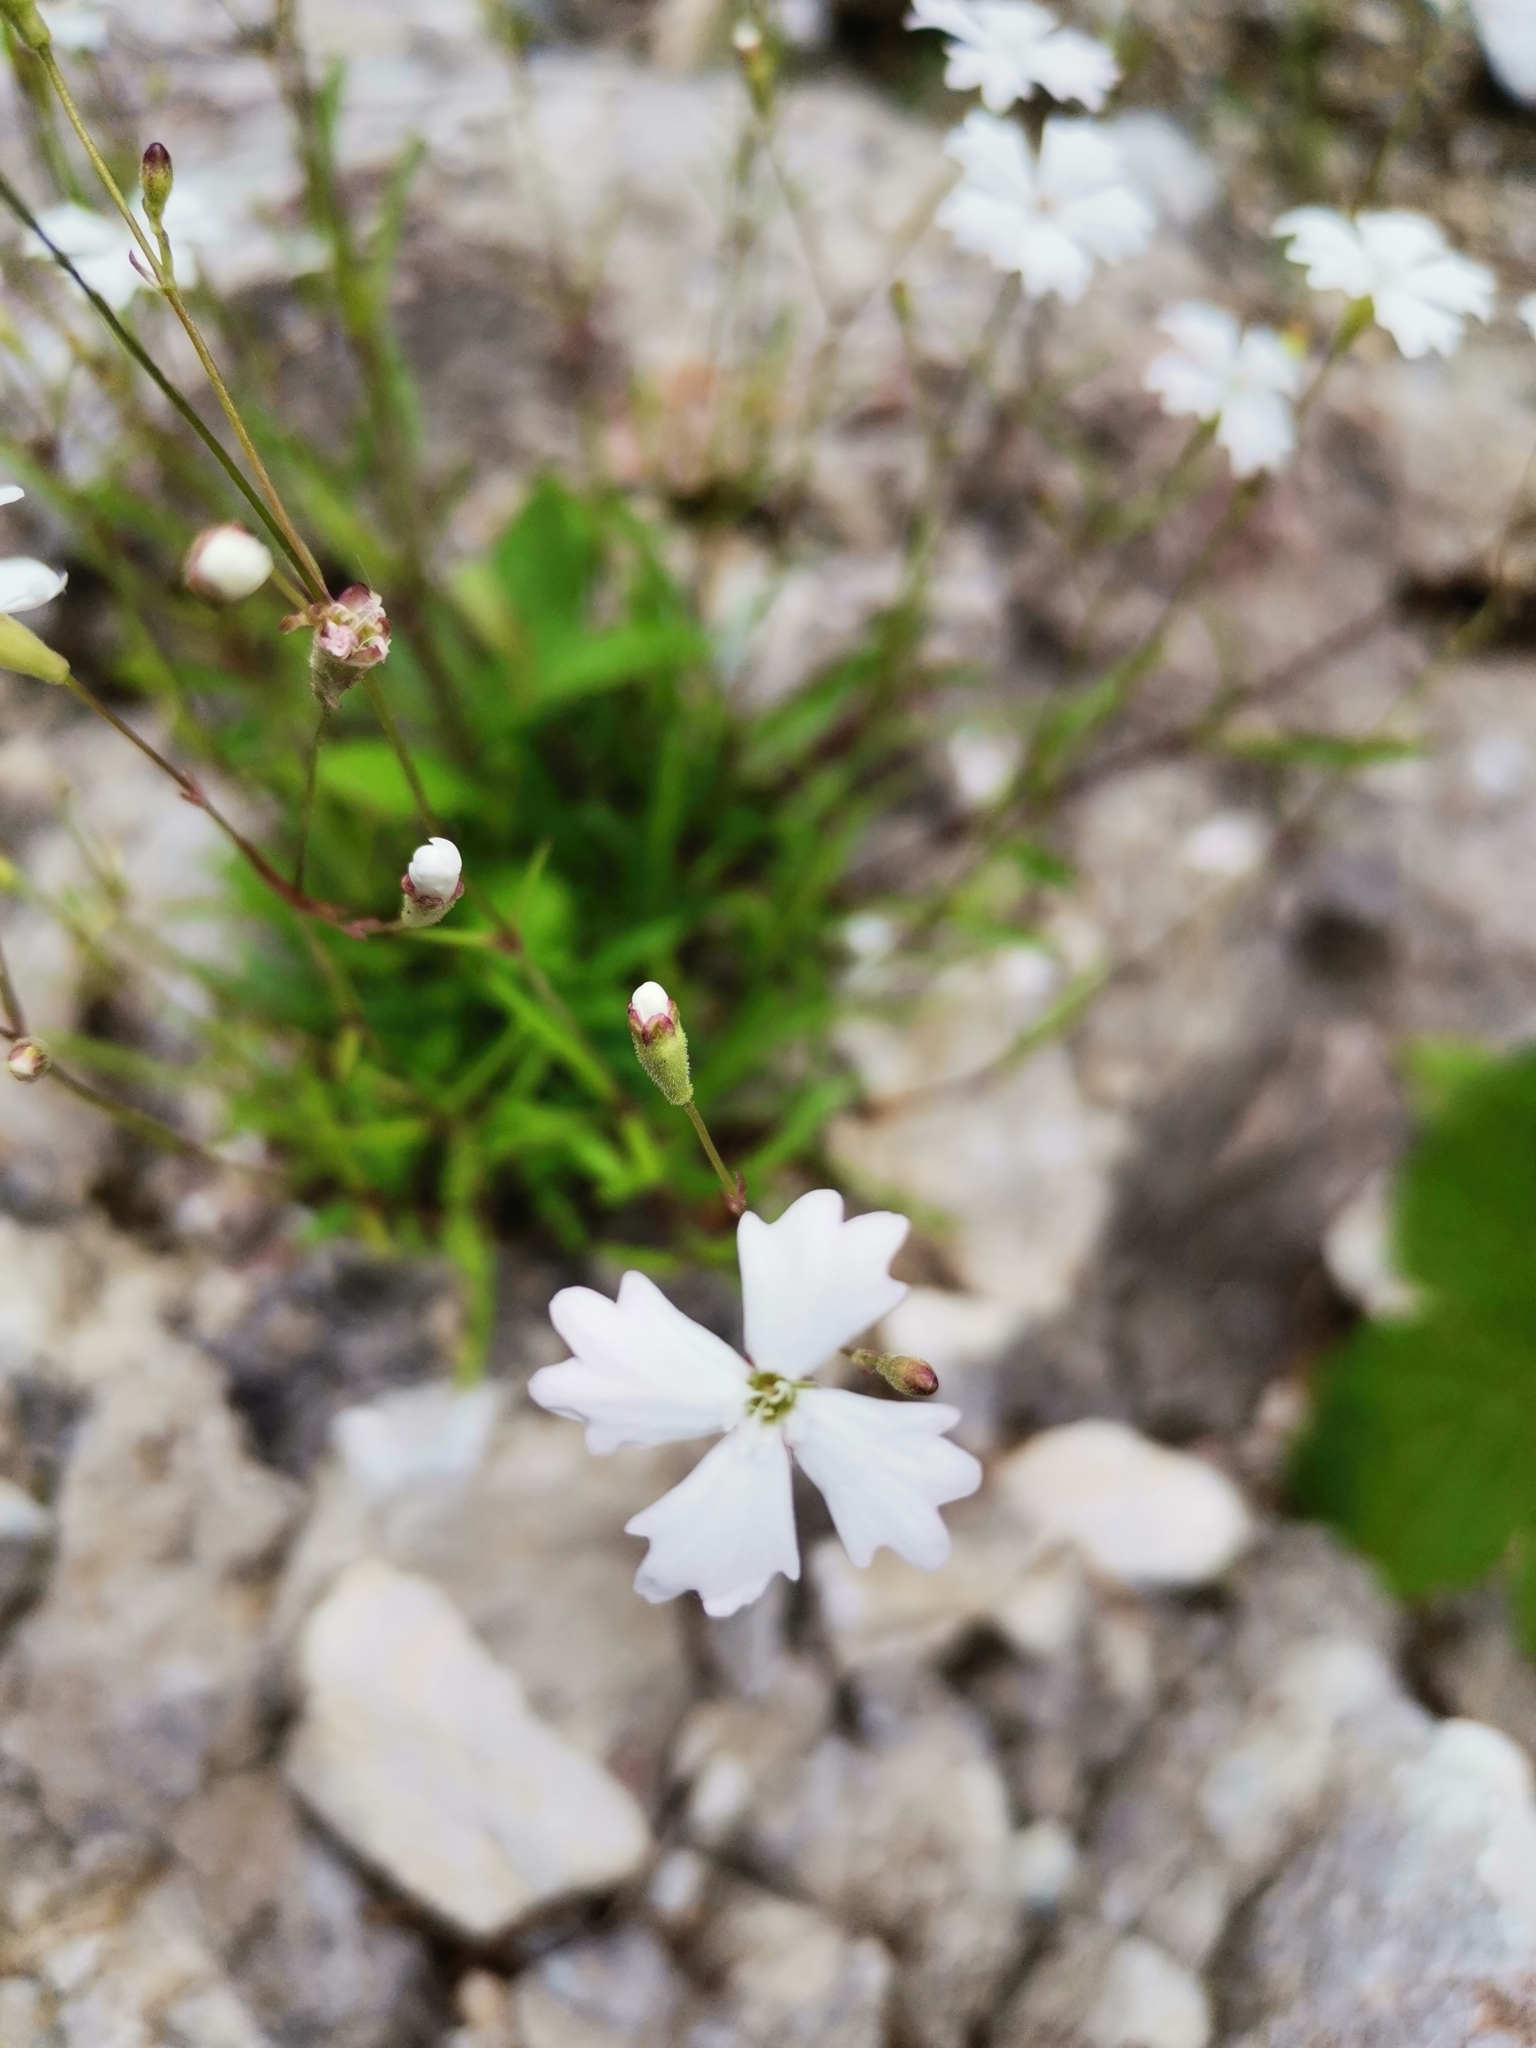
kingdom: Plantae
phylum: Tracheophyta
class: Magnoliopsida
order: Caryophyllales
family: Caryophyllaceae
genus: Heliosperma
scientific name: Heliosperma alpestre
